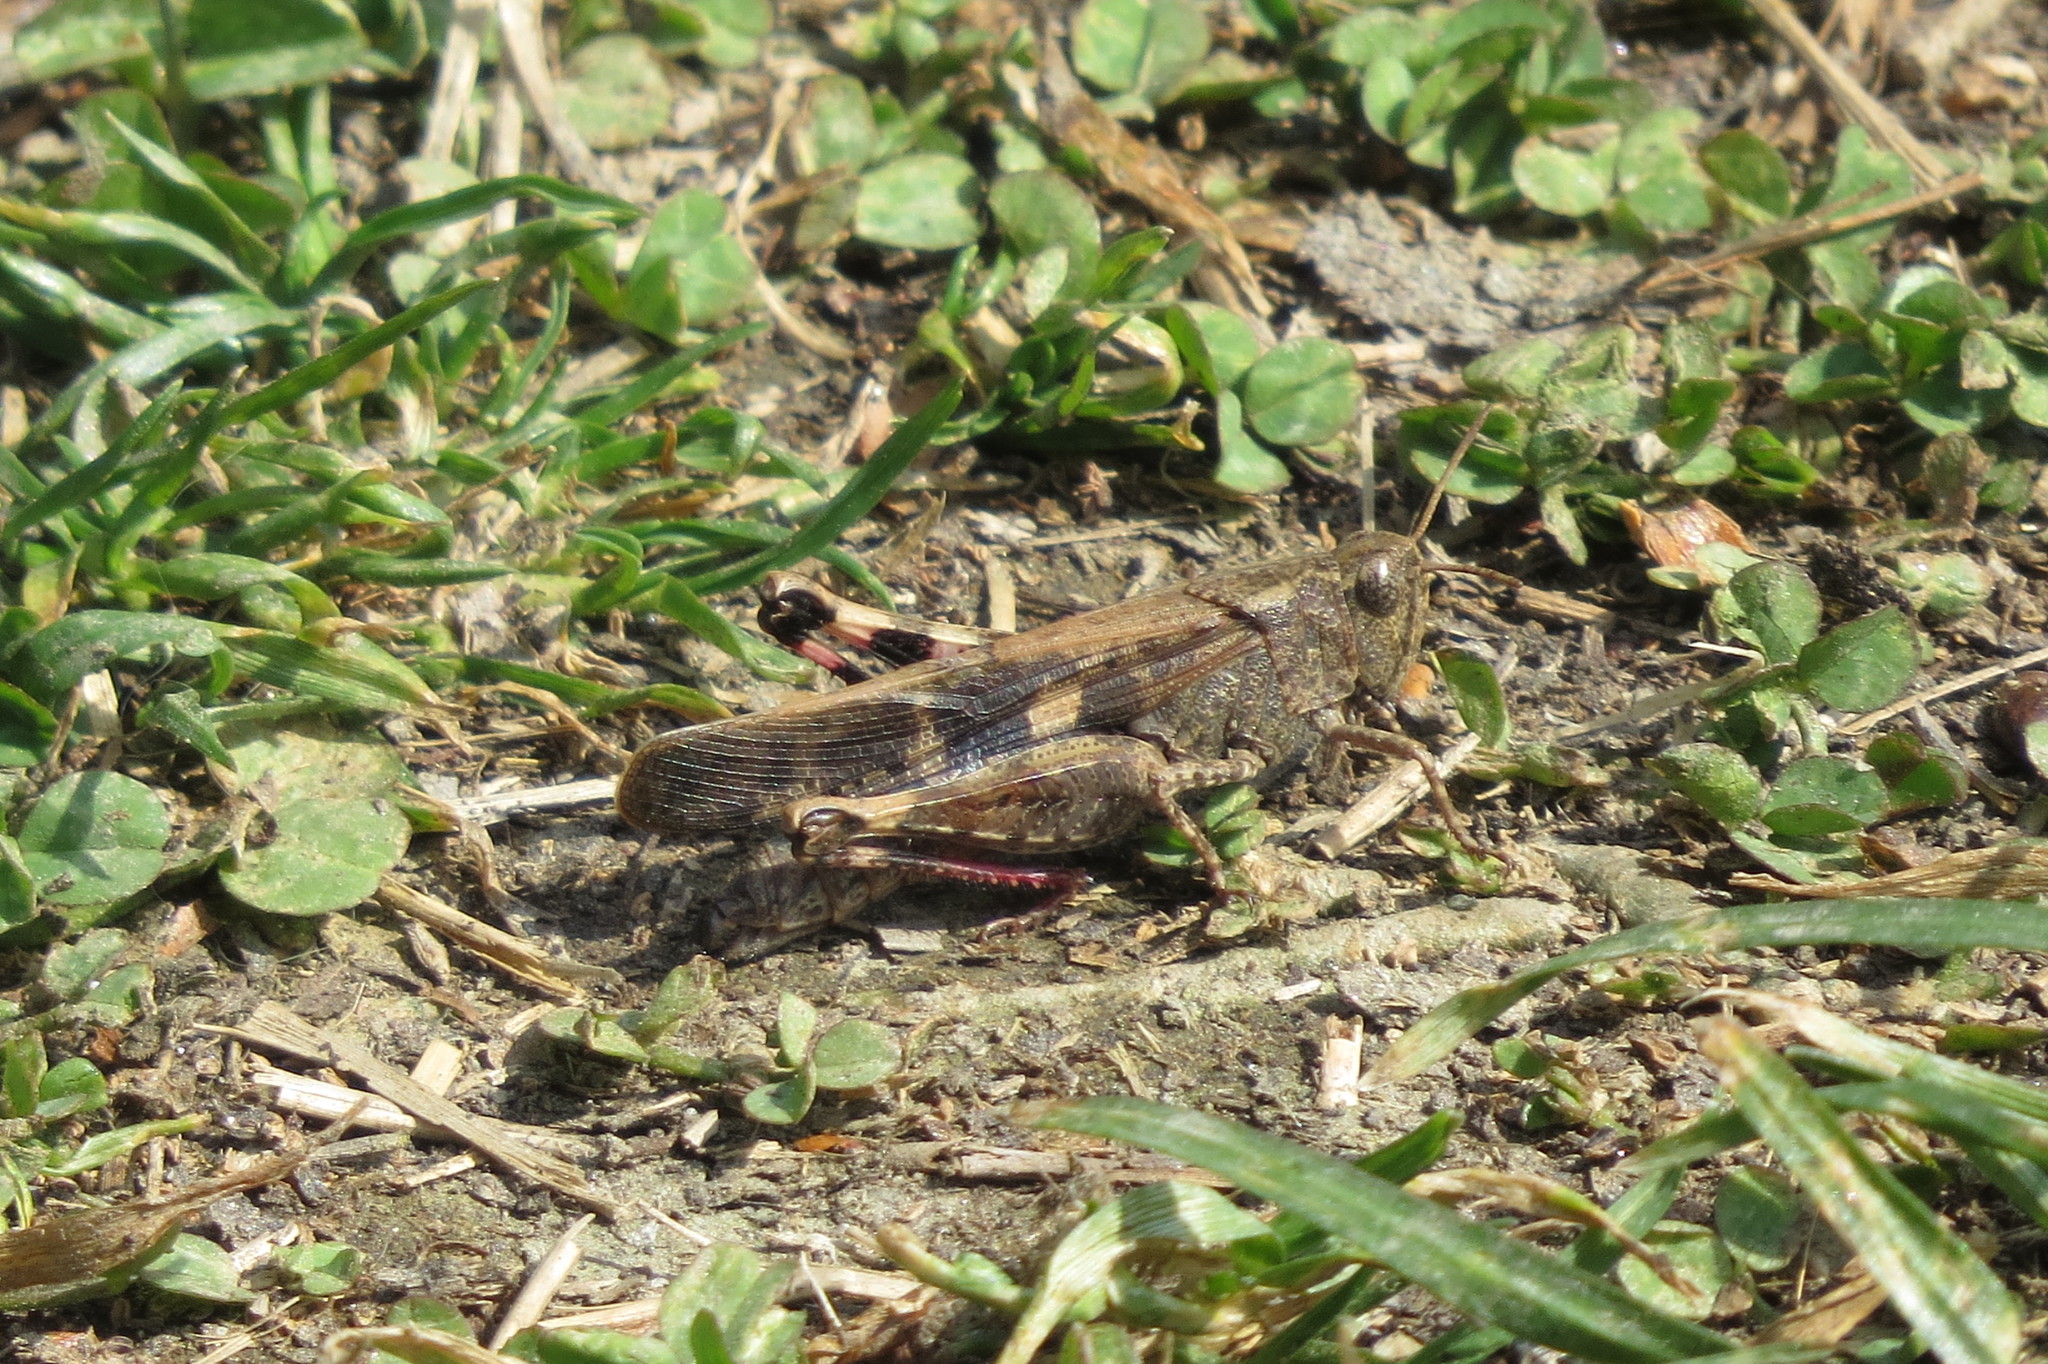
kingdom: Animalia
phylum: Arthropoda
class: Insecta
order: Orthoptera
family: Acrididae
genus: Aiolopus
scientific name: Aiolopus strepens
